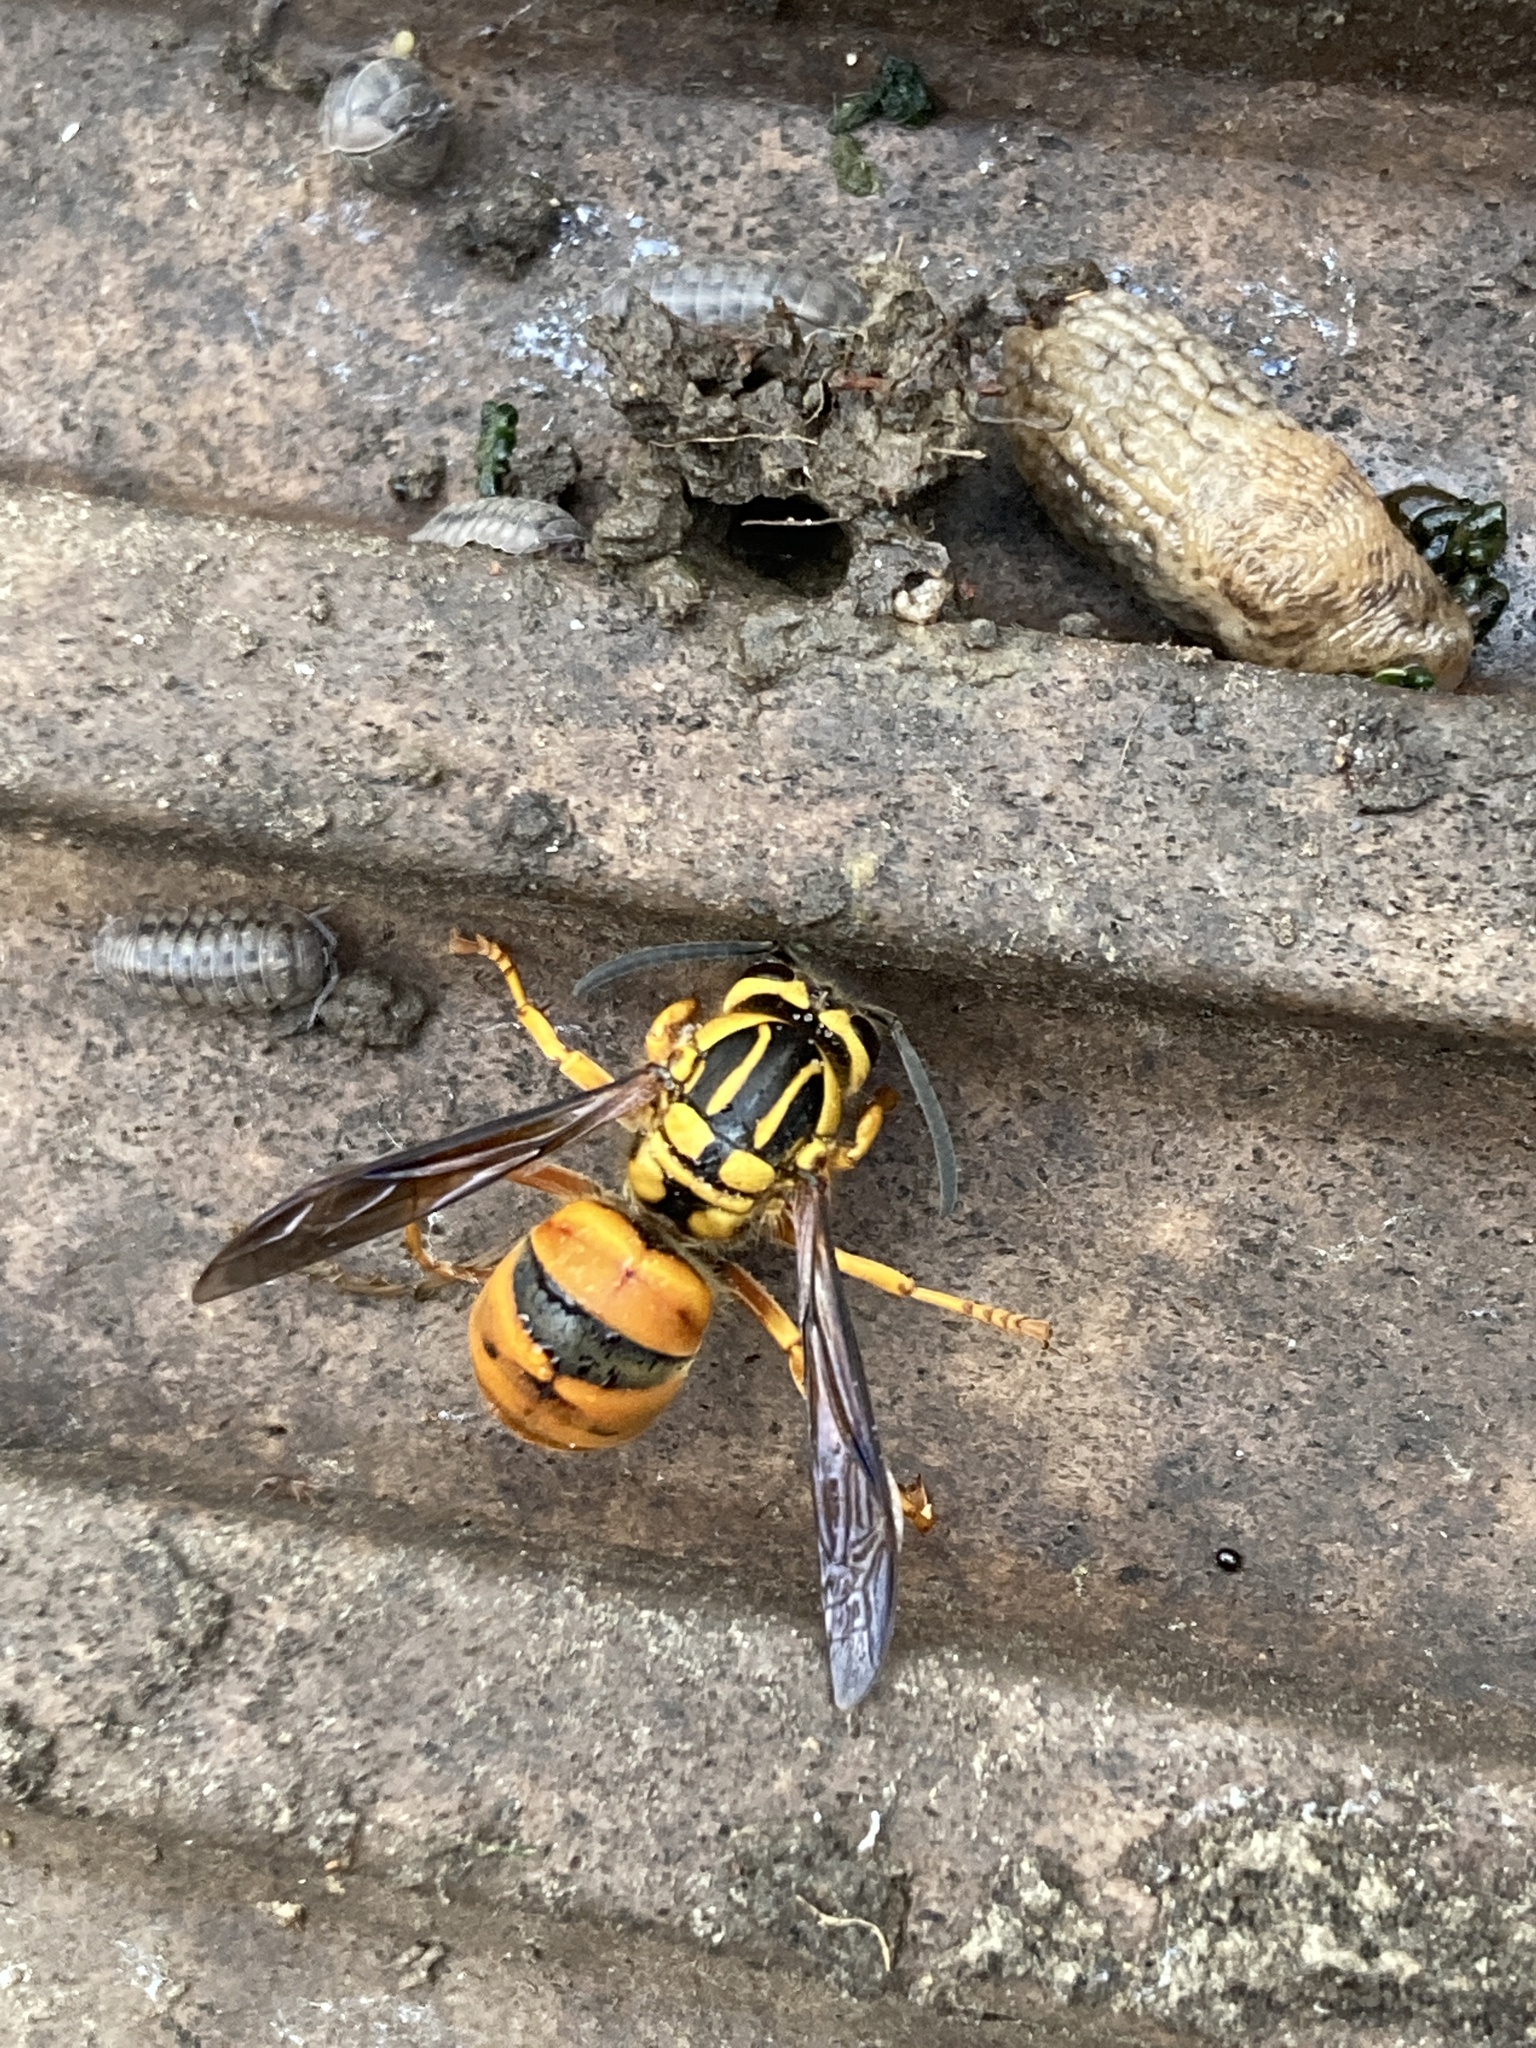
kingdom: Animalia
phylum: Arthropoda
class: Insecta
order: Hymenoptera
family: Vespidae
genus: Vespula
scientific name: Vespula squamosa
